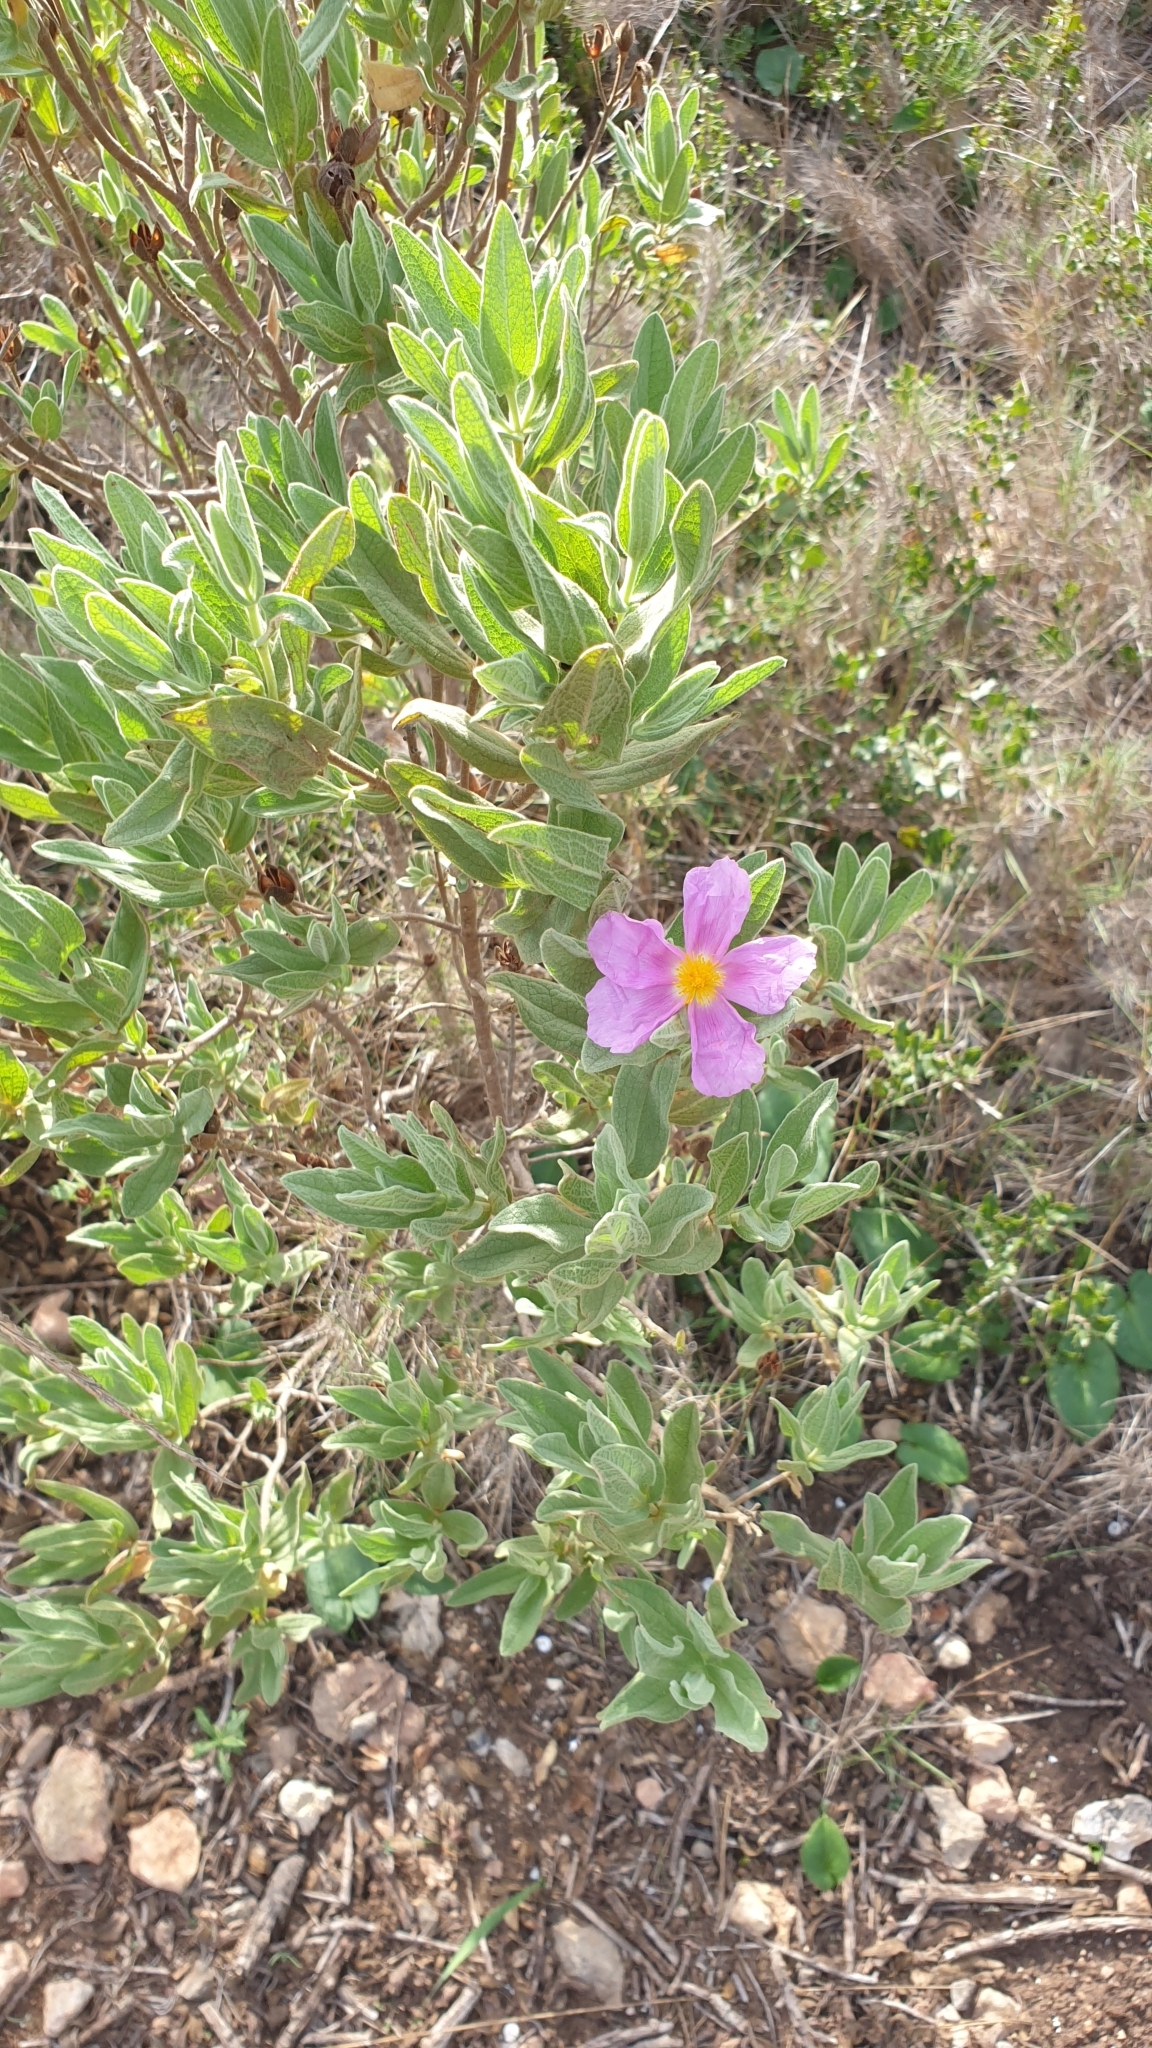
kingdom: Plantae
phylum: Tracheophyta
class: Magnoliopsida
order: Malvales
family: Cistaceae
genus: Cistus
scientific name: Cistus albidus
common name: White-leaf rock-rose
